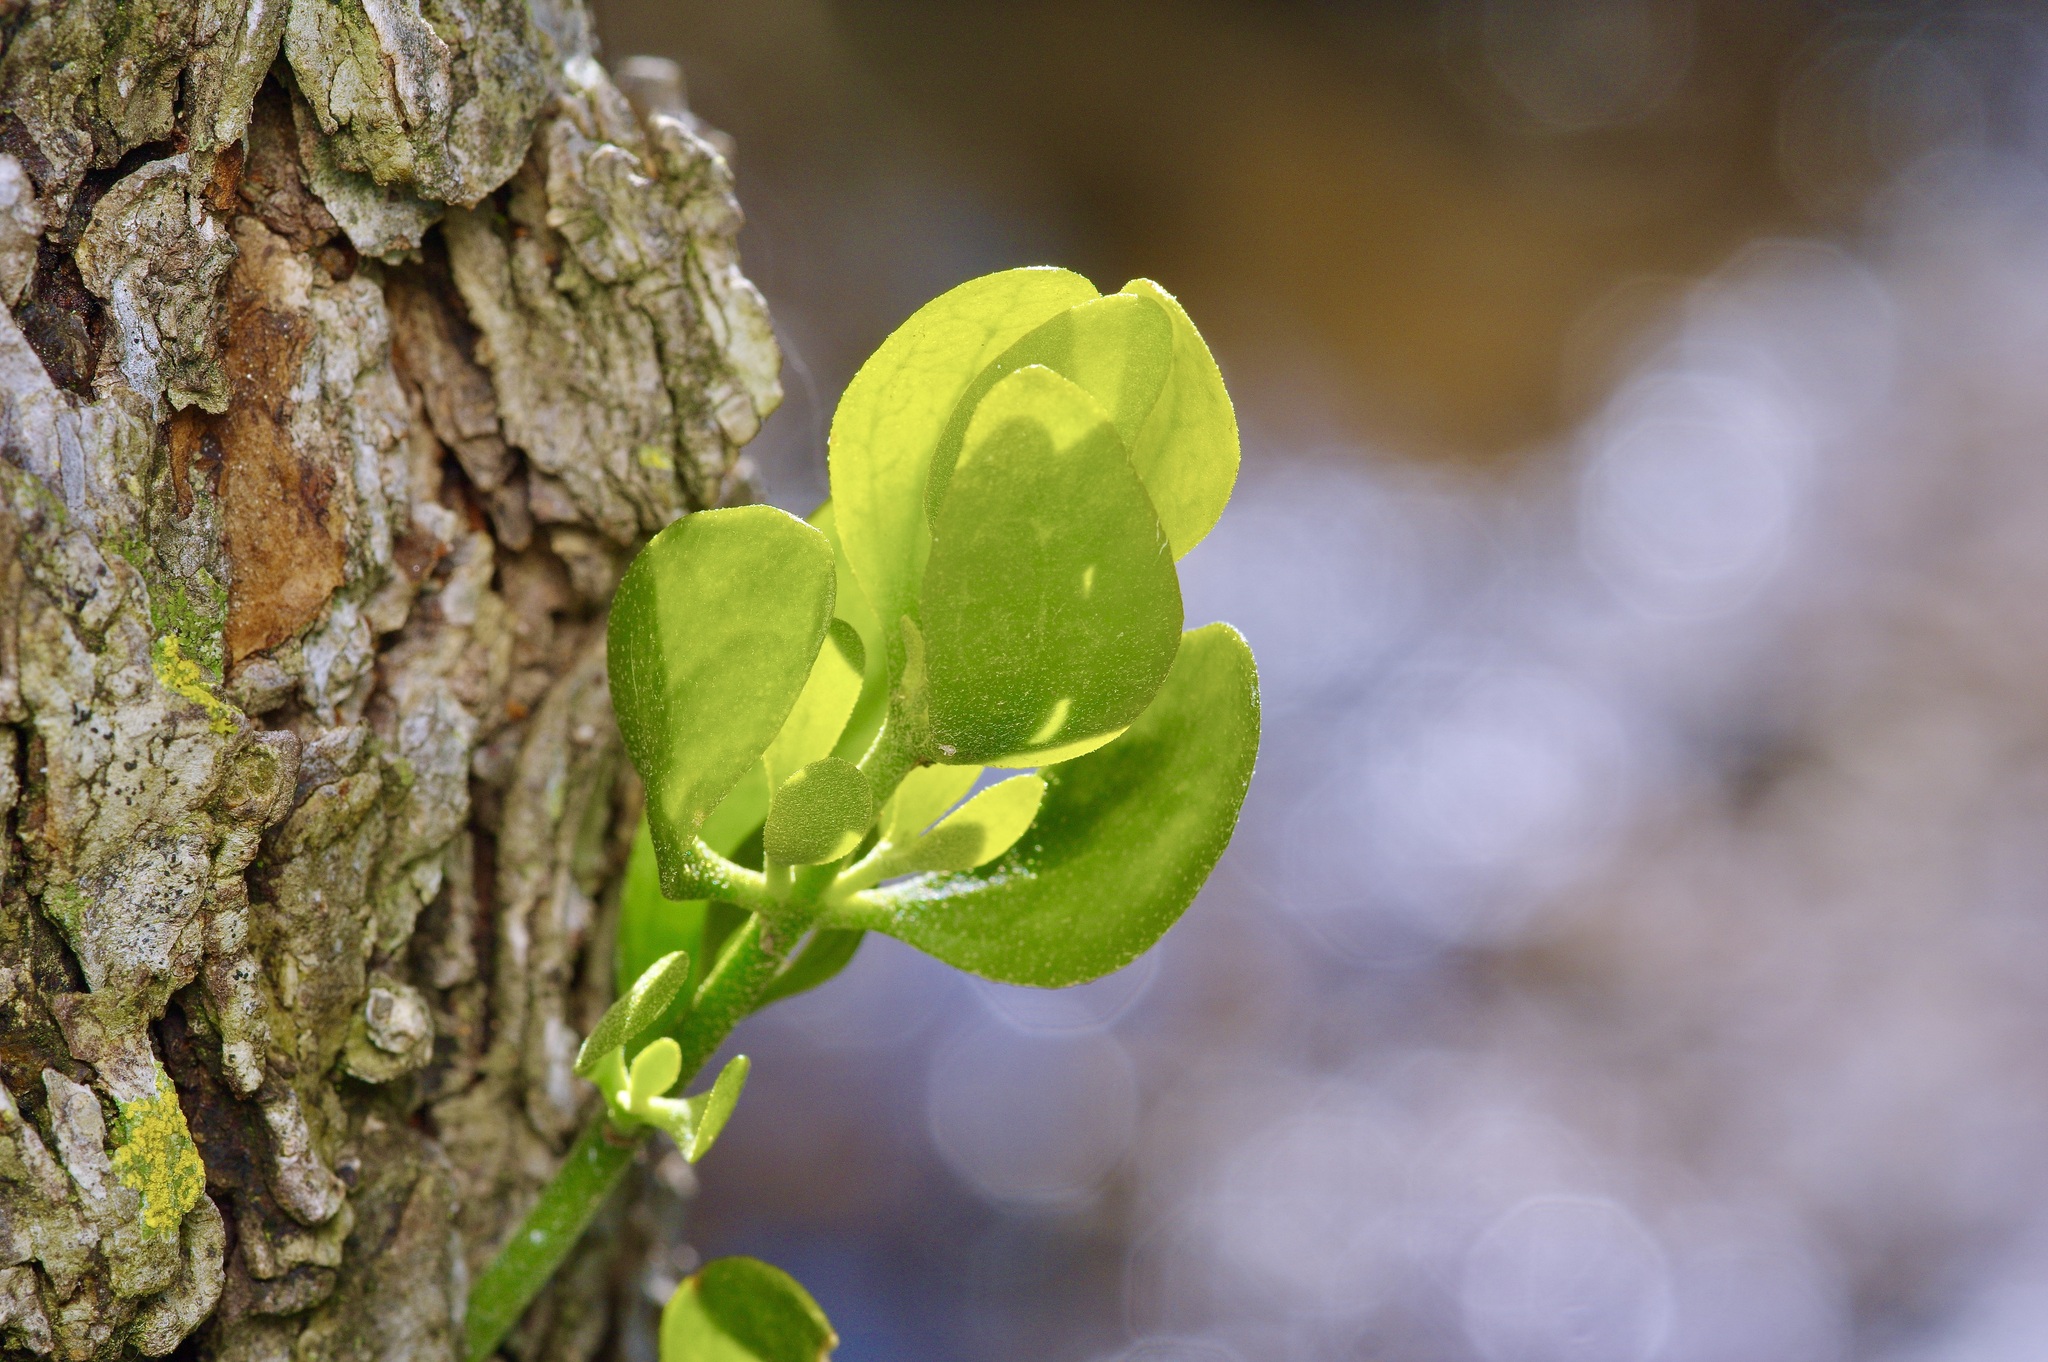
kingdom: Plantae
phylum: Tracheophyta
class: Magnoliopsida
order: Santalales
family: Viscaceae
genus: Phoradendron
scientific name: Phoradendron leucarpum
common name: Pacific mistletoe
